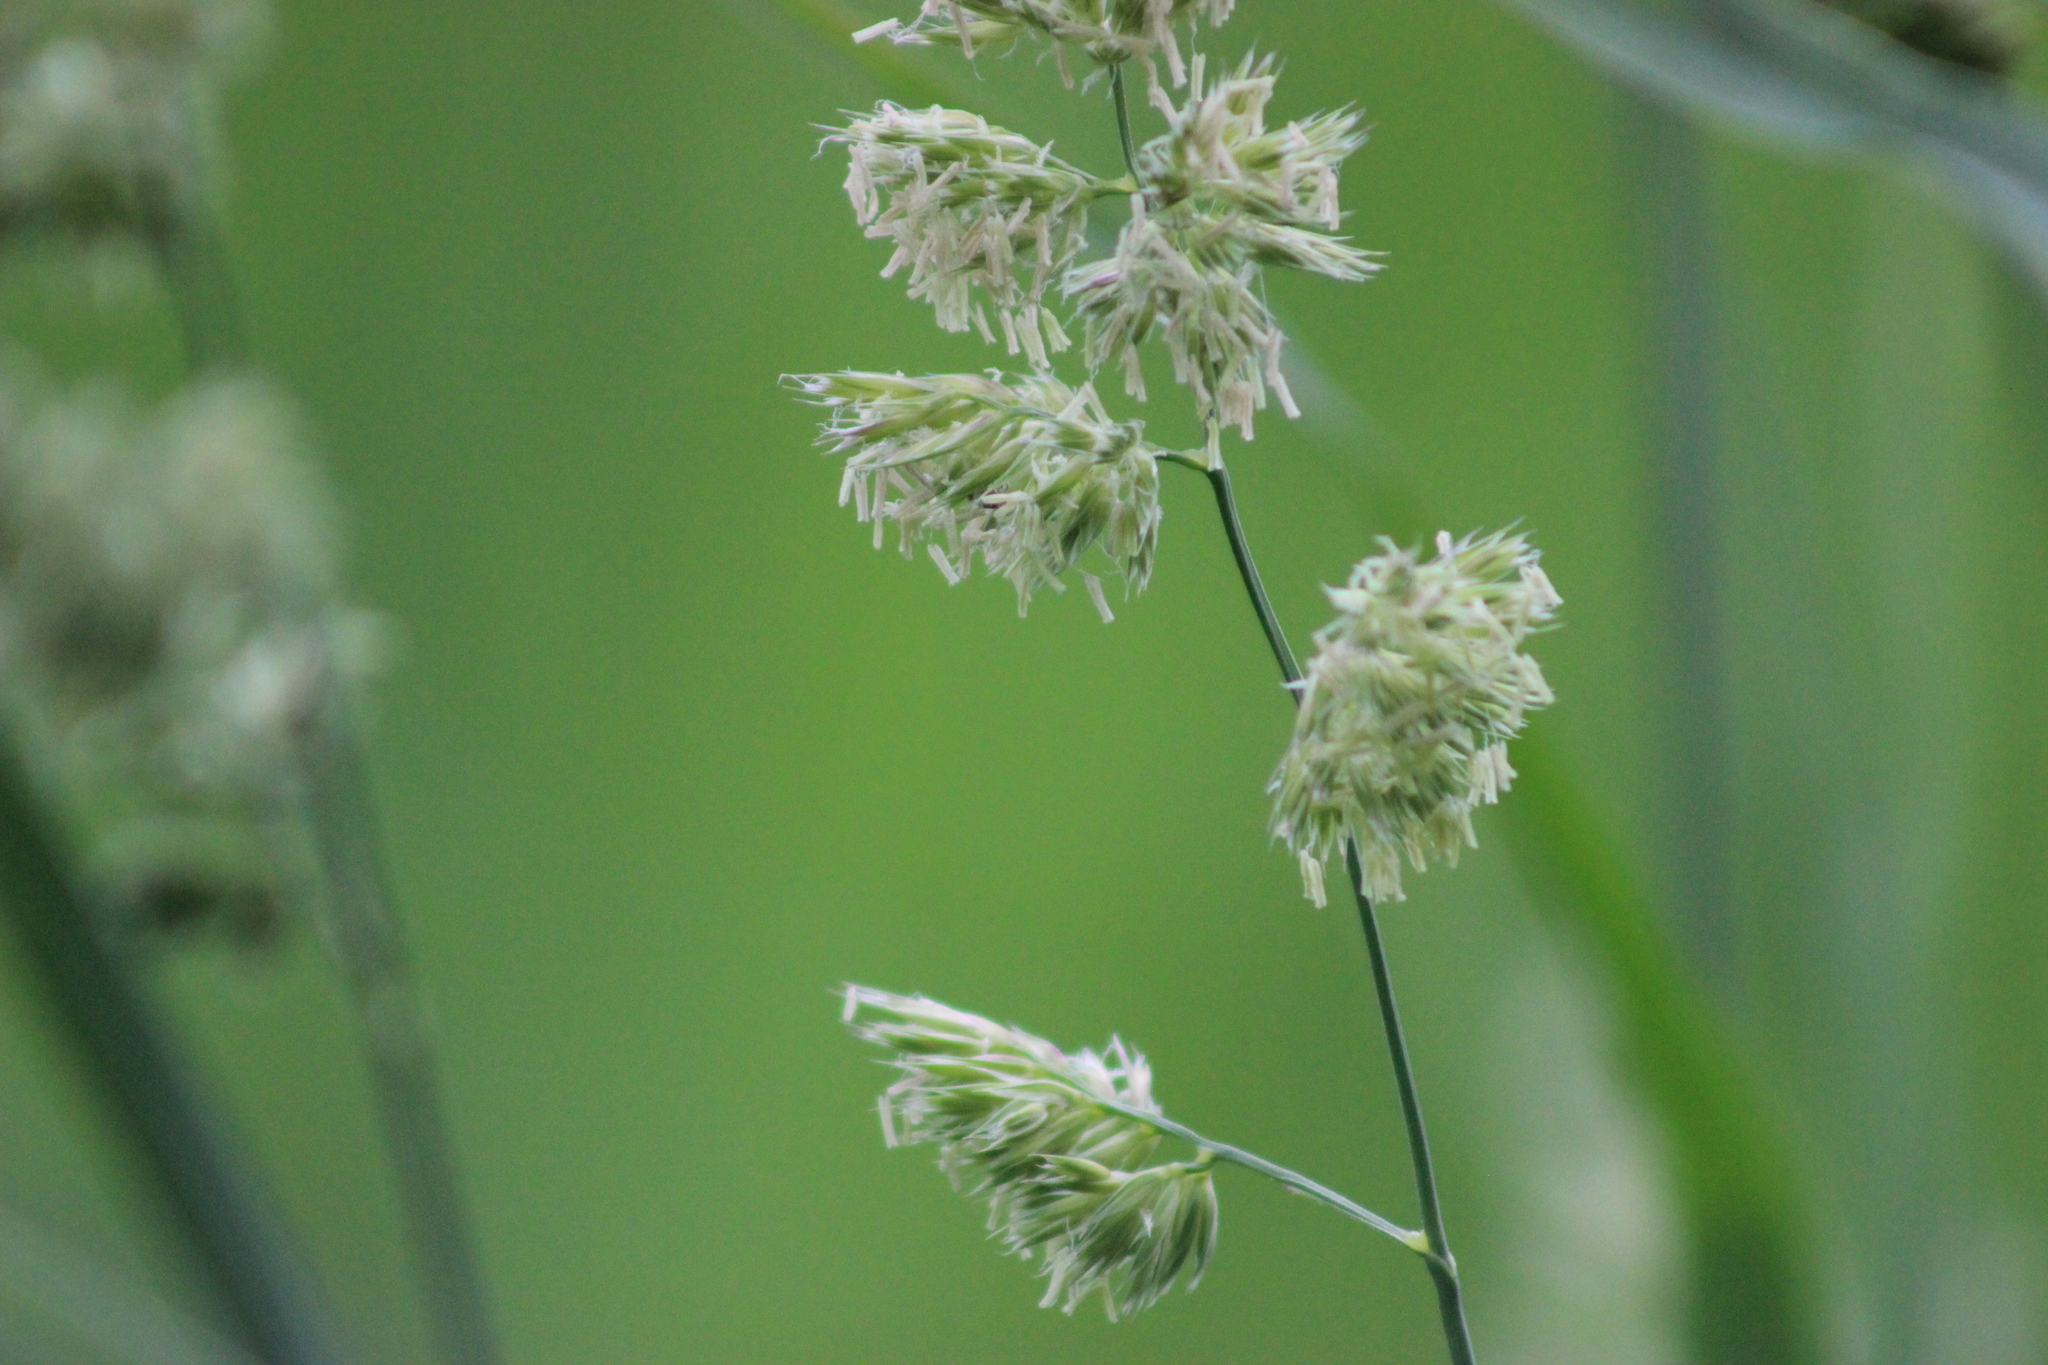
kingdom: Plantae
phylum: Tracheophyta
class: Liliopsida
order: Poales
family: Poaceae
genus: Dactylis
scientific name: Dactylis glomerata
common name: Orchardgrass
